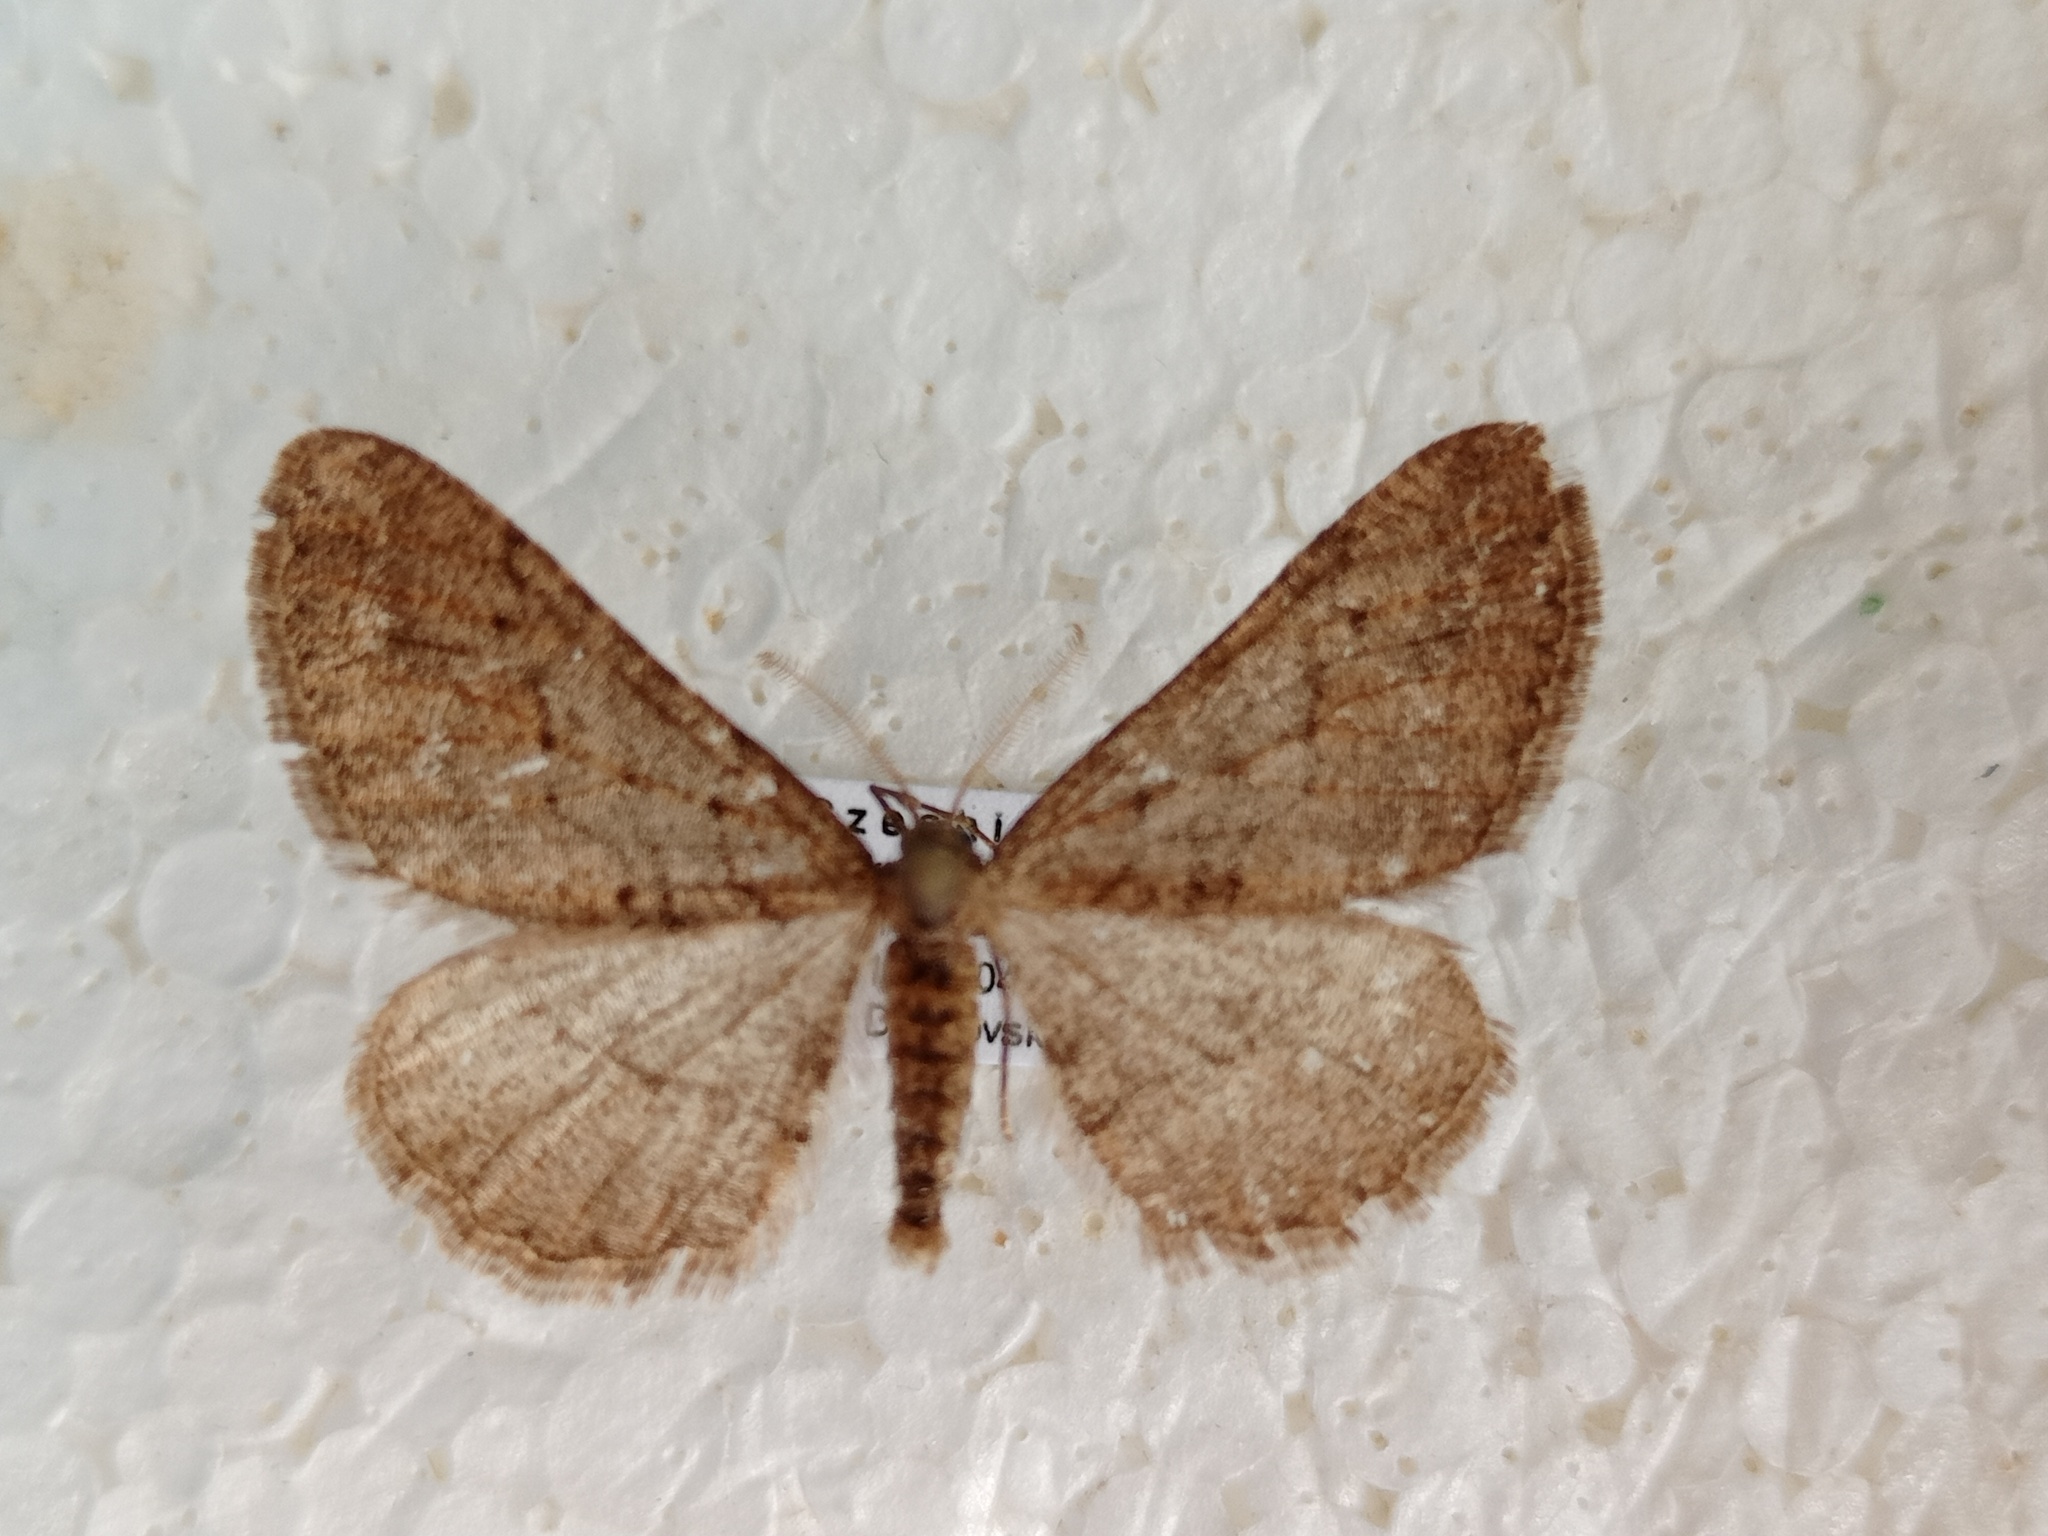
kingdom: Animalia
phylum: Arthropoda
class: Insecta
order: Lepidoptera
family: Geometridae
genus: Agriopis
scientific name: Agriopis bajaria
